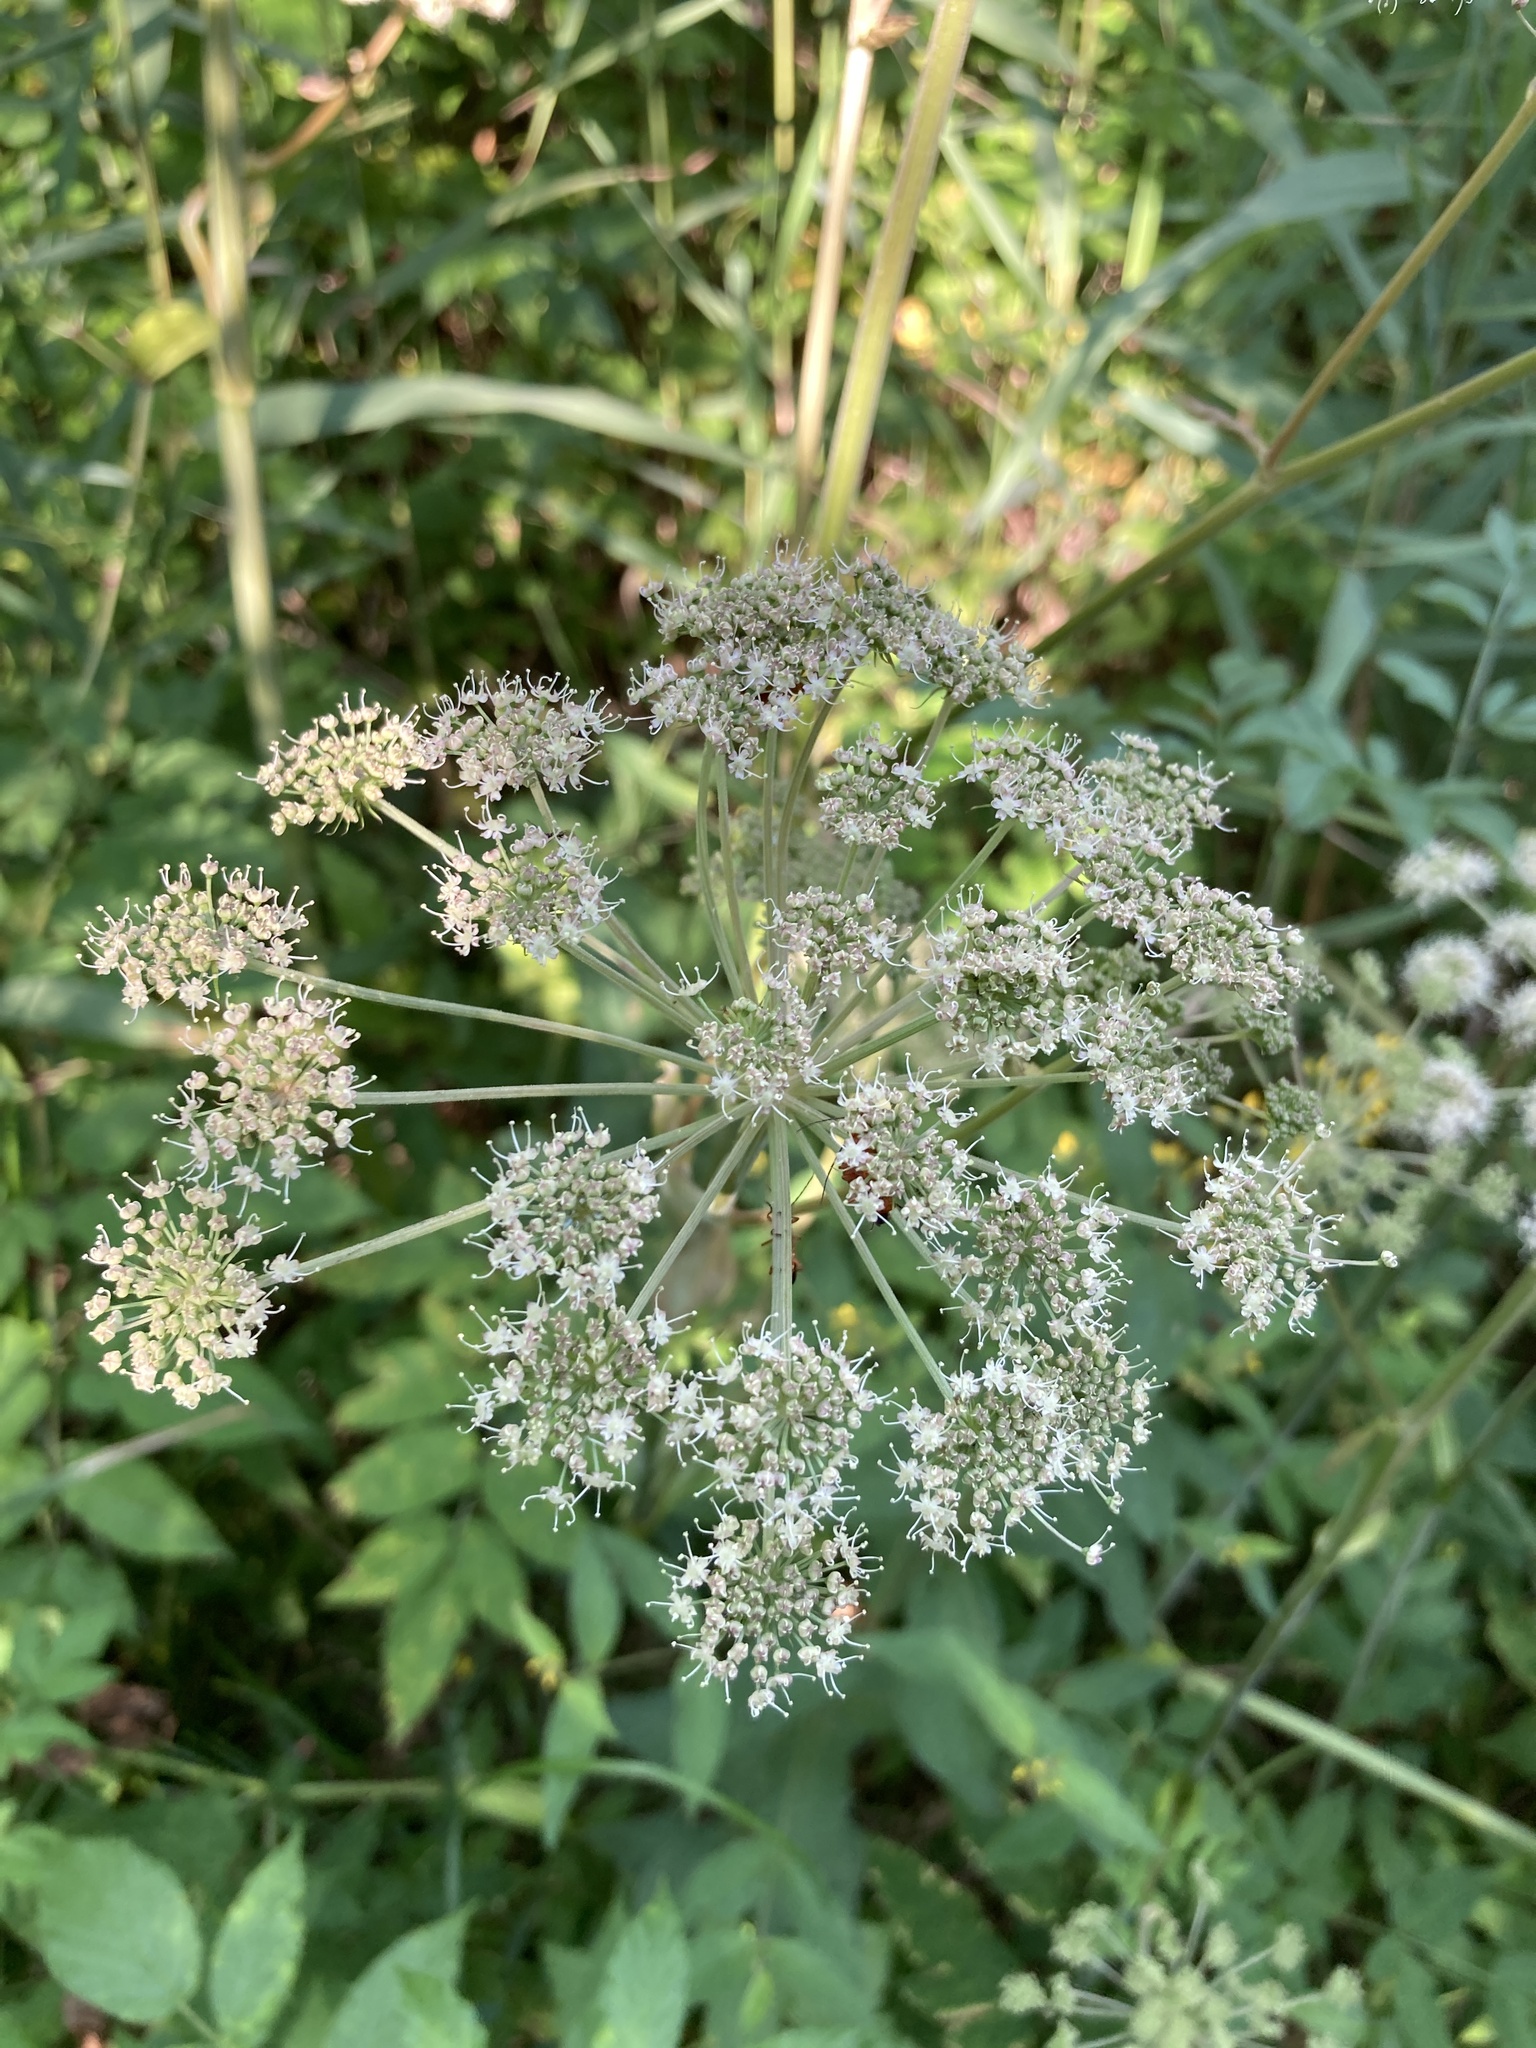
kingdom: Plantae
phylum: Tracheophyta
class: Magnoliopsida
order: Apiales
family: Apiaceae
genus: Angelica
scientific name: Angelica sylvestris
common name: Wild angelica
